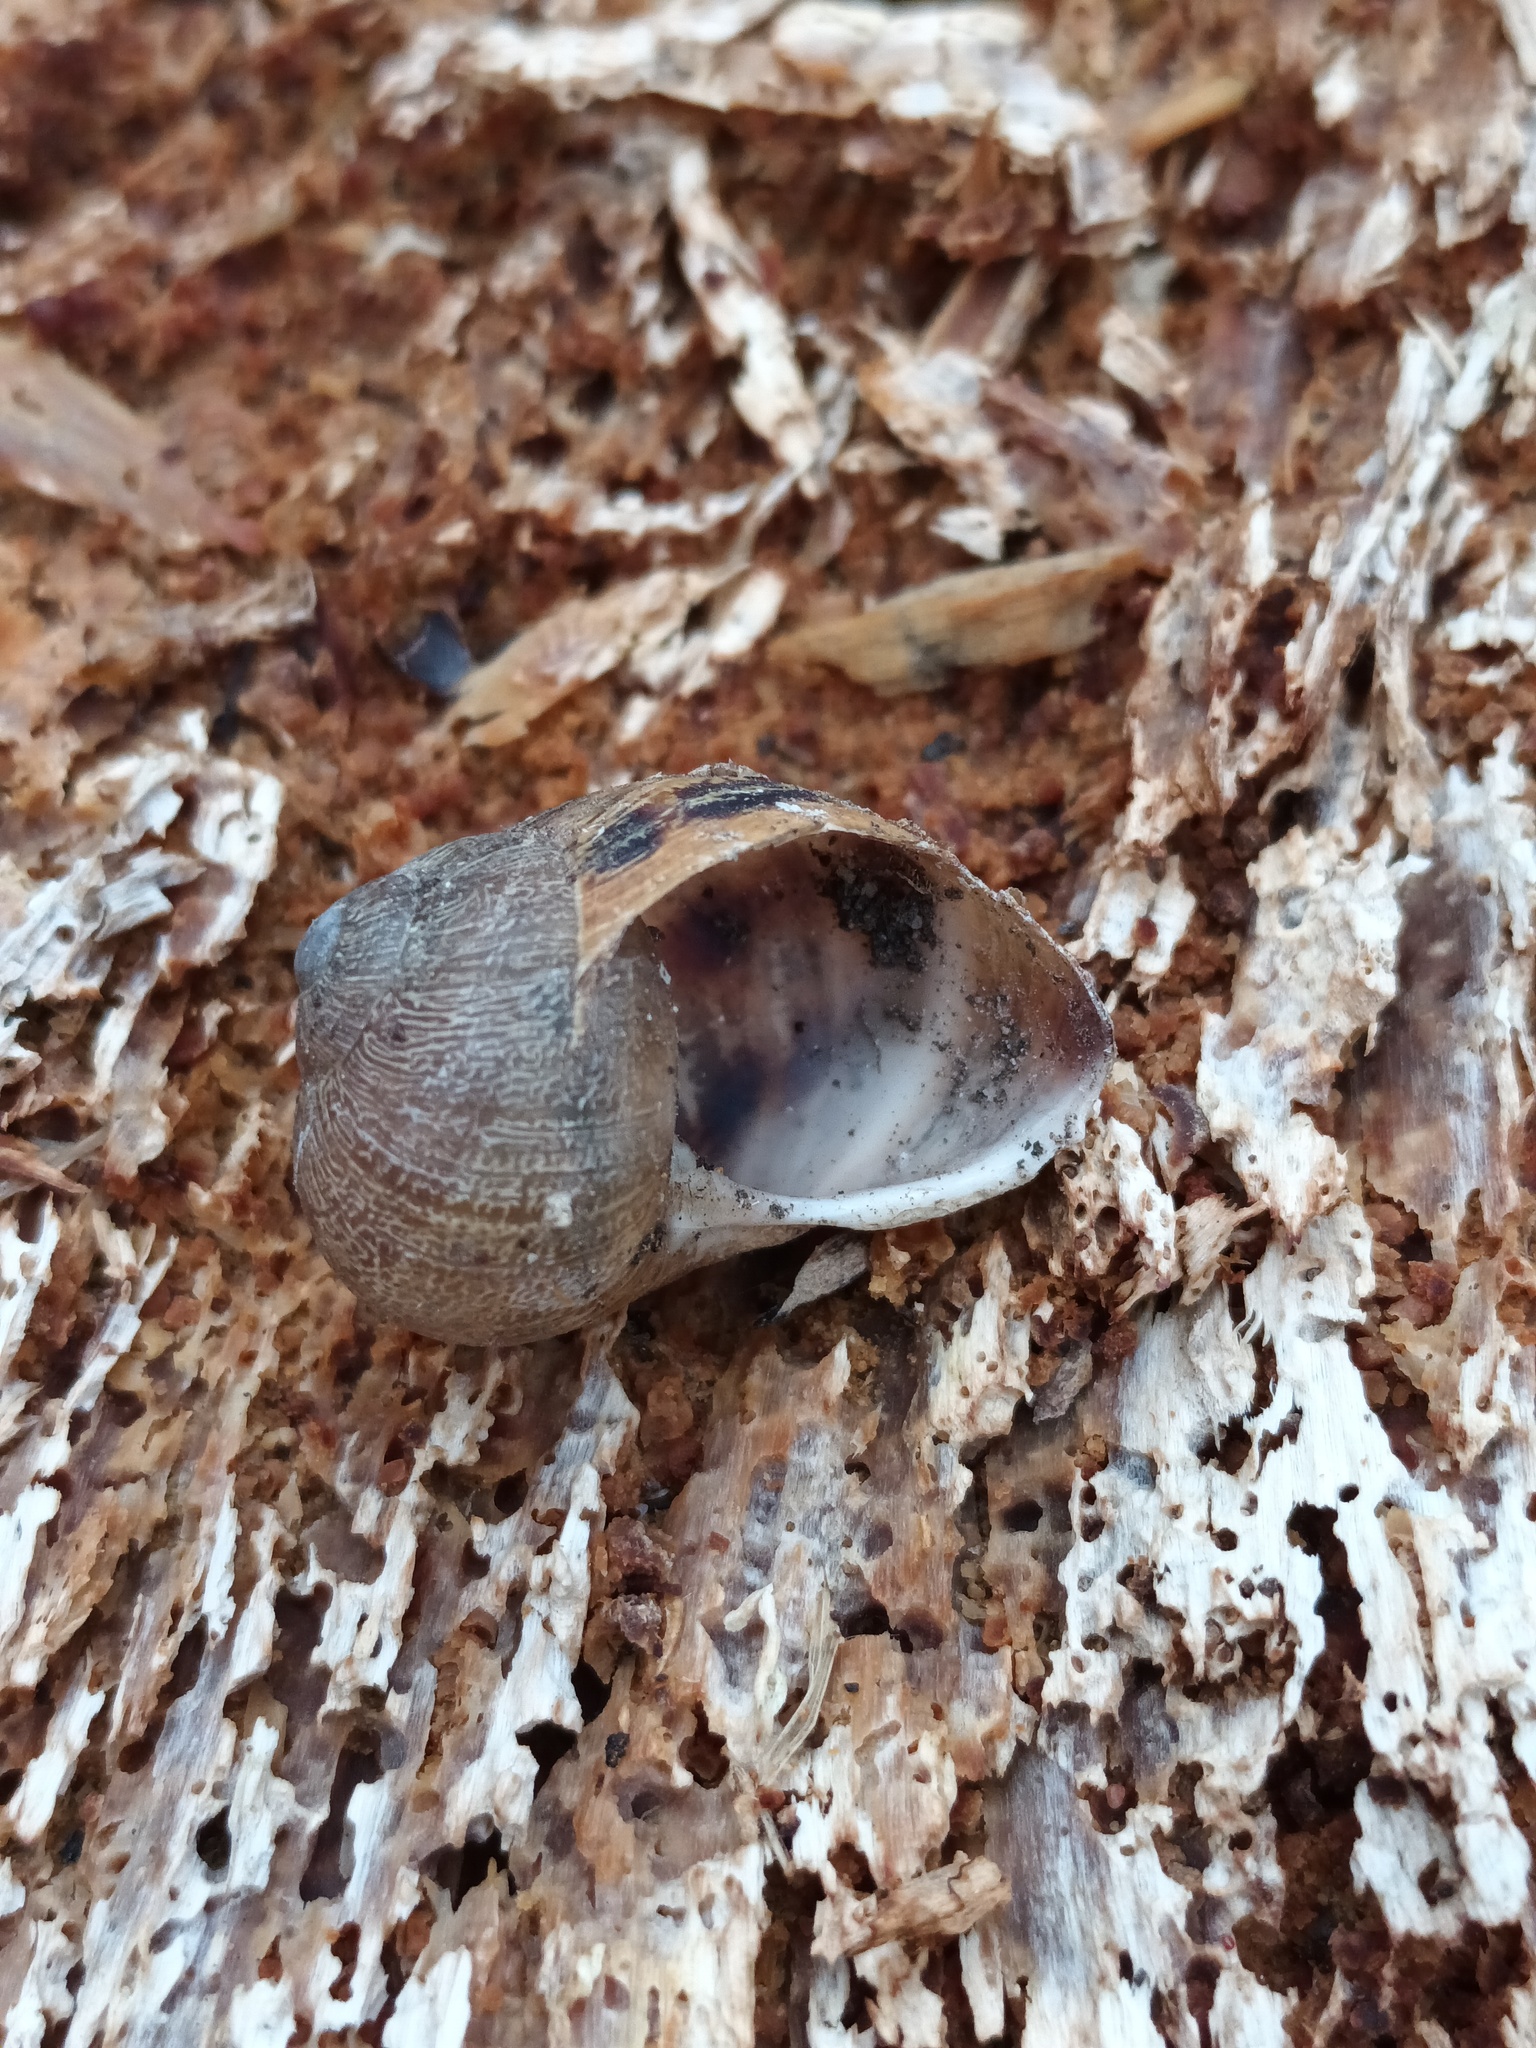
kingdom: Animalia
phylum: Mollusca
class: Gastropoda
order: Stylommatophora
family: Helicidae
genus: Cornu
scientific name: Cornu aspersum
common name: Brown garden snail
